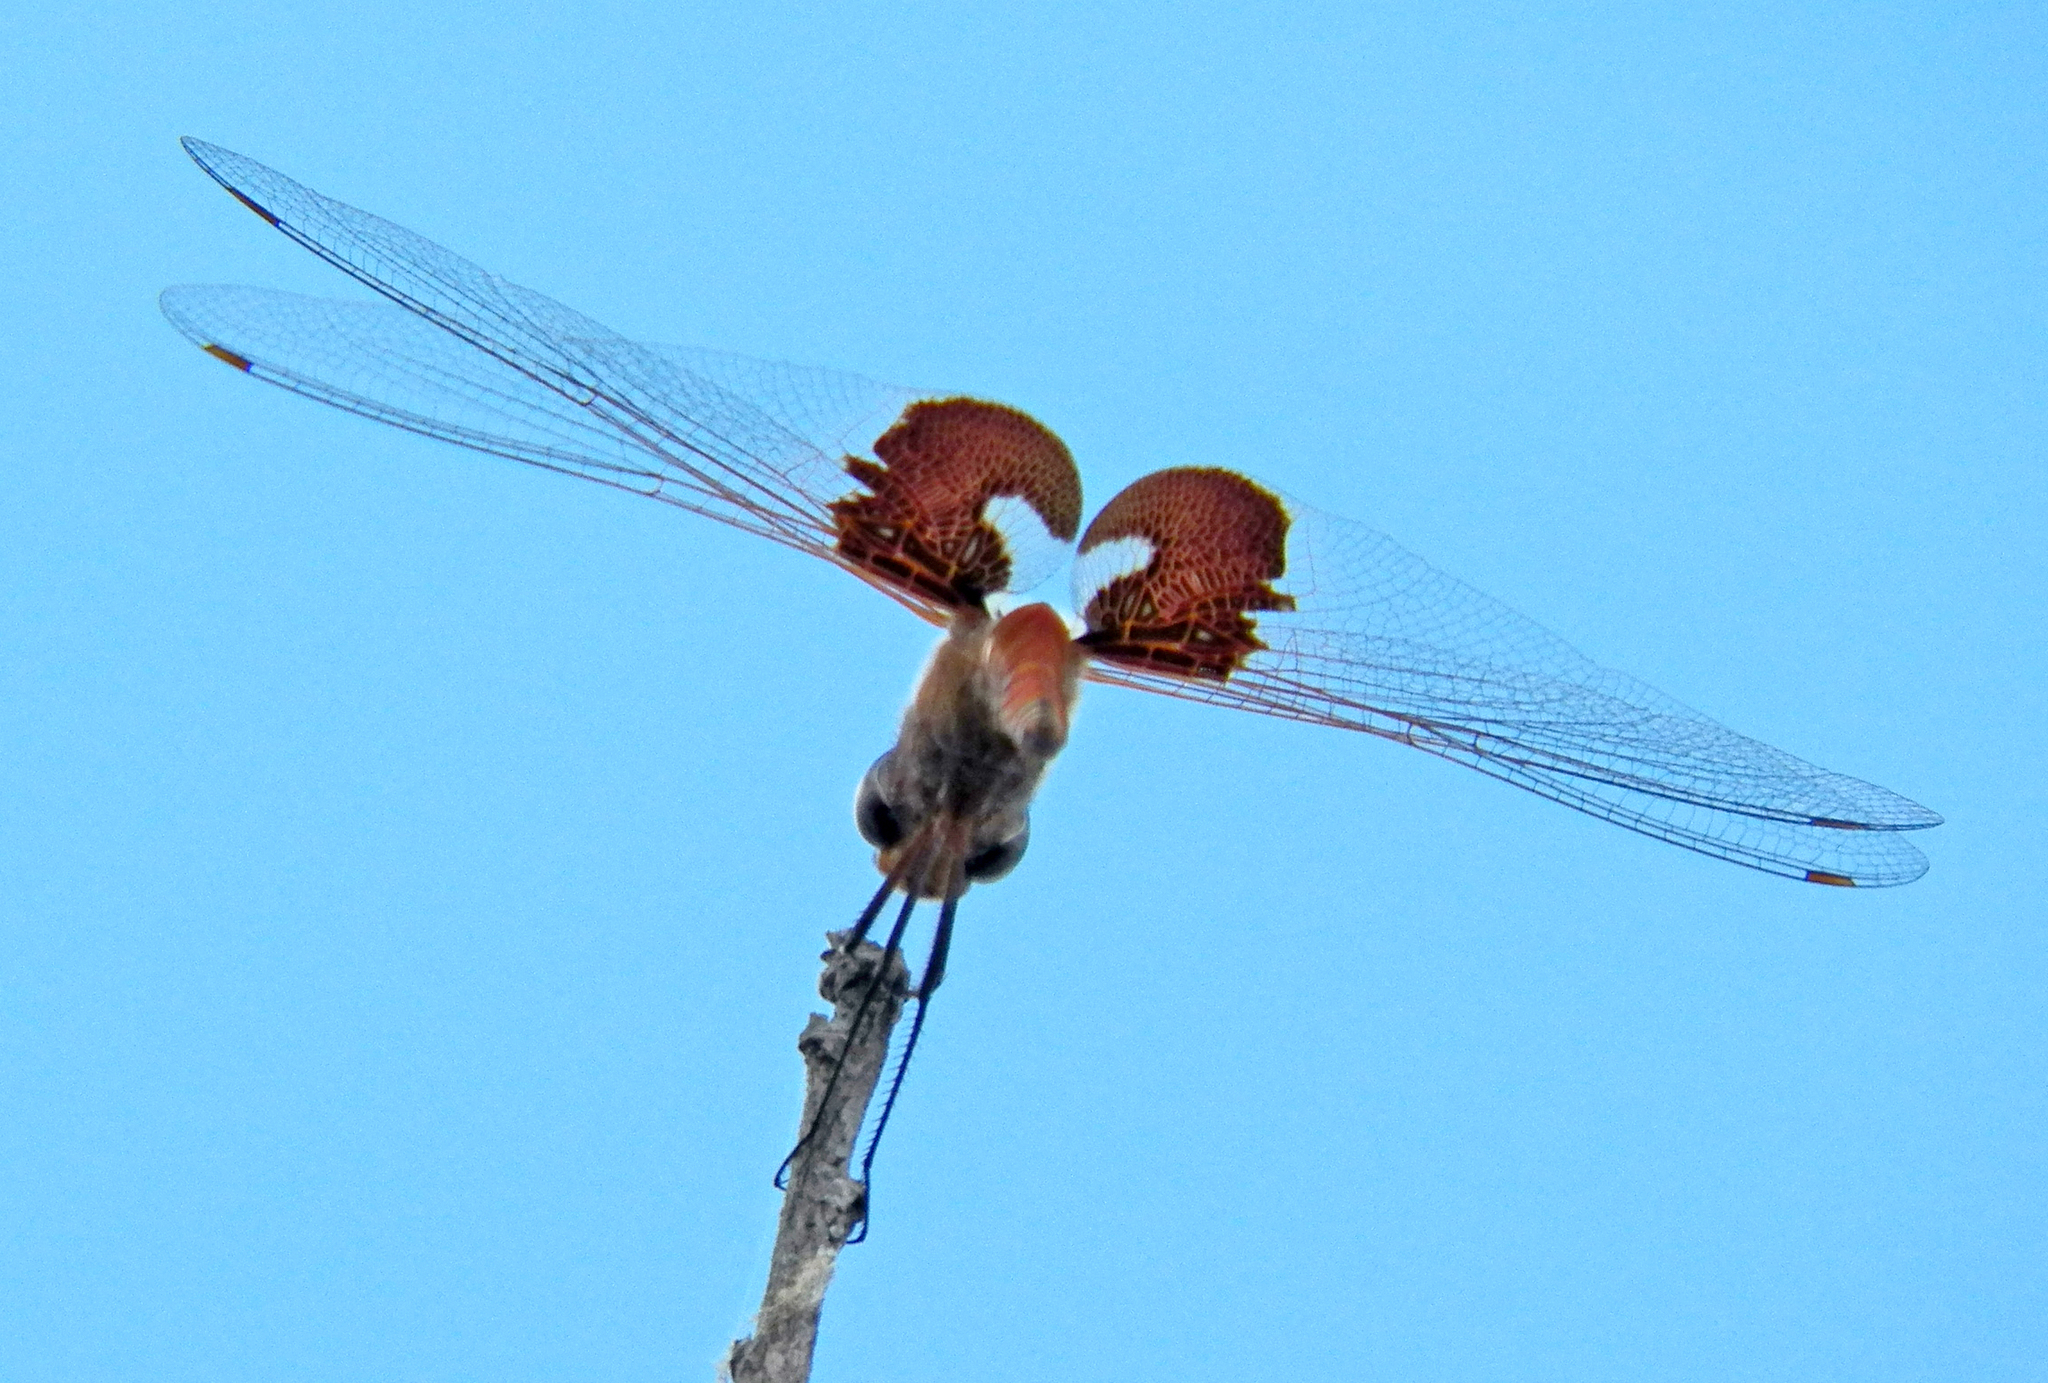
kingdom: Animalia
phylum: Arthropoda
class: Insecta
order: Odonata
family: Libellulidae
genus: Tramea
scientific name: Tramea onusta
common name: Red saddlebags
